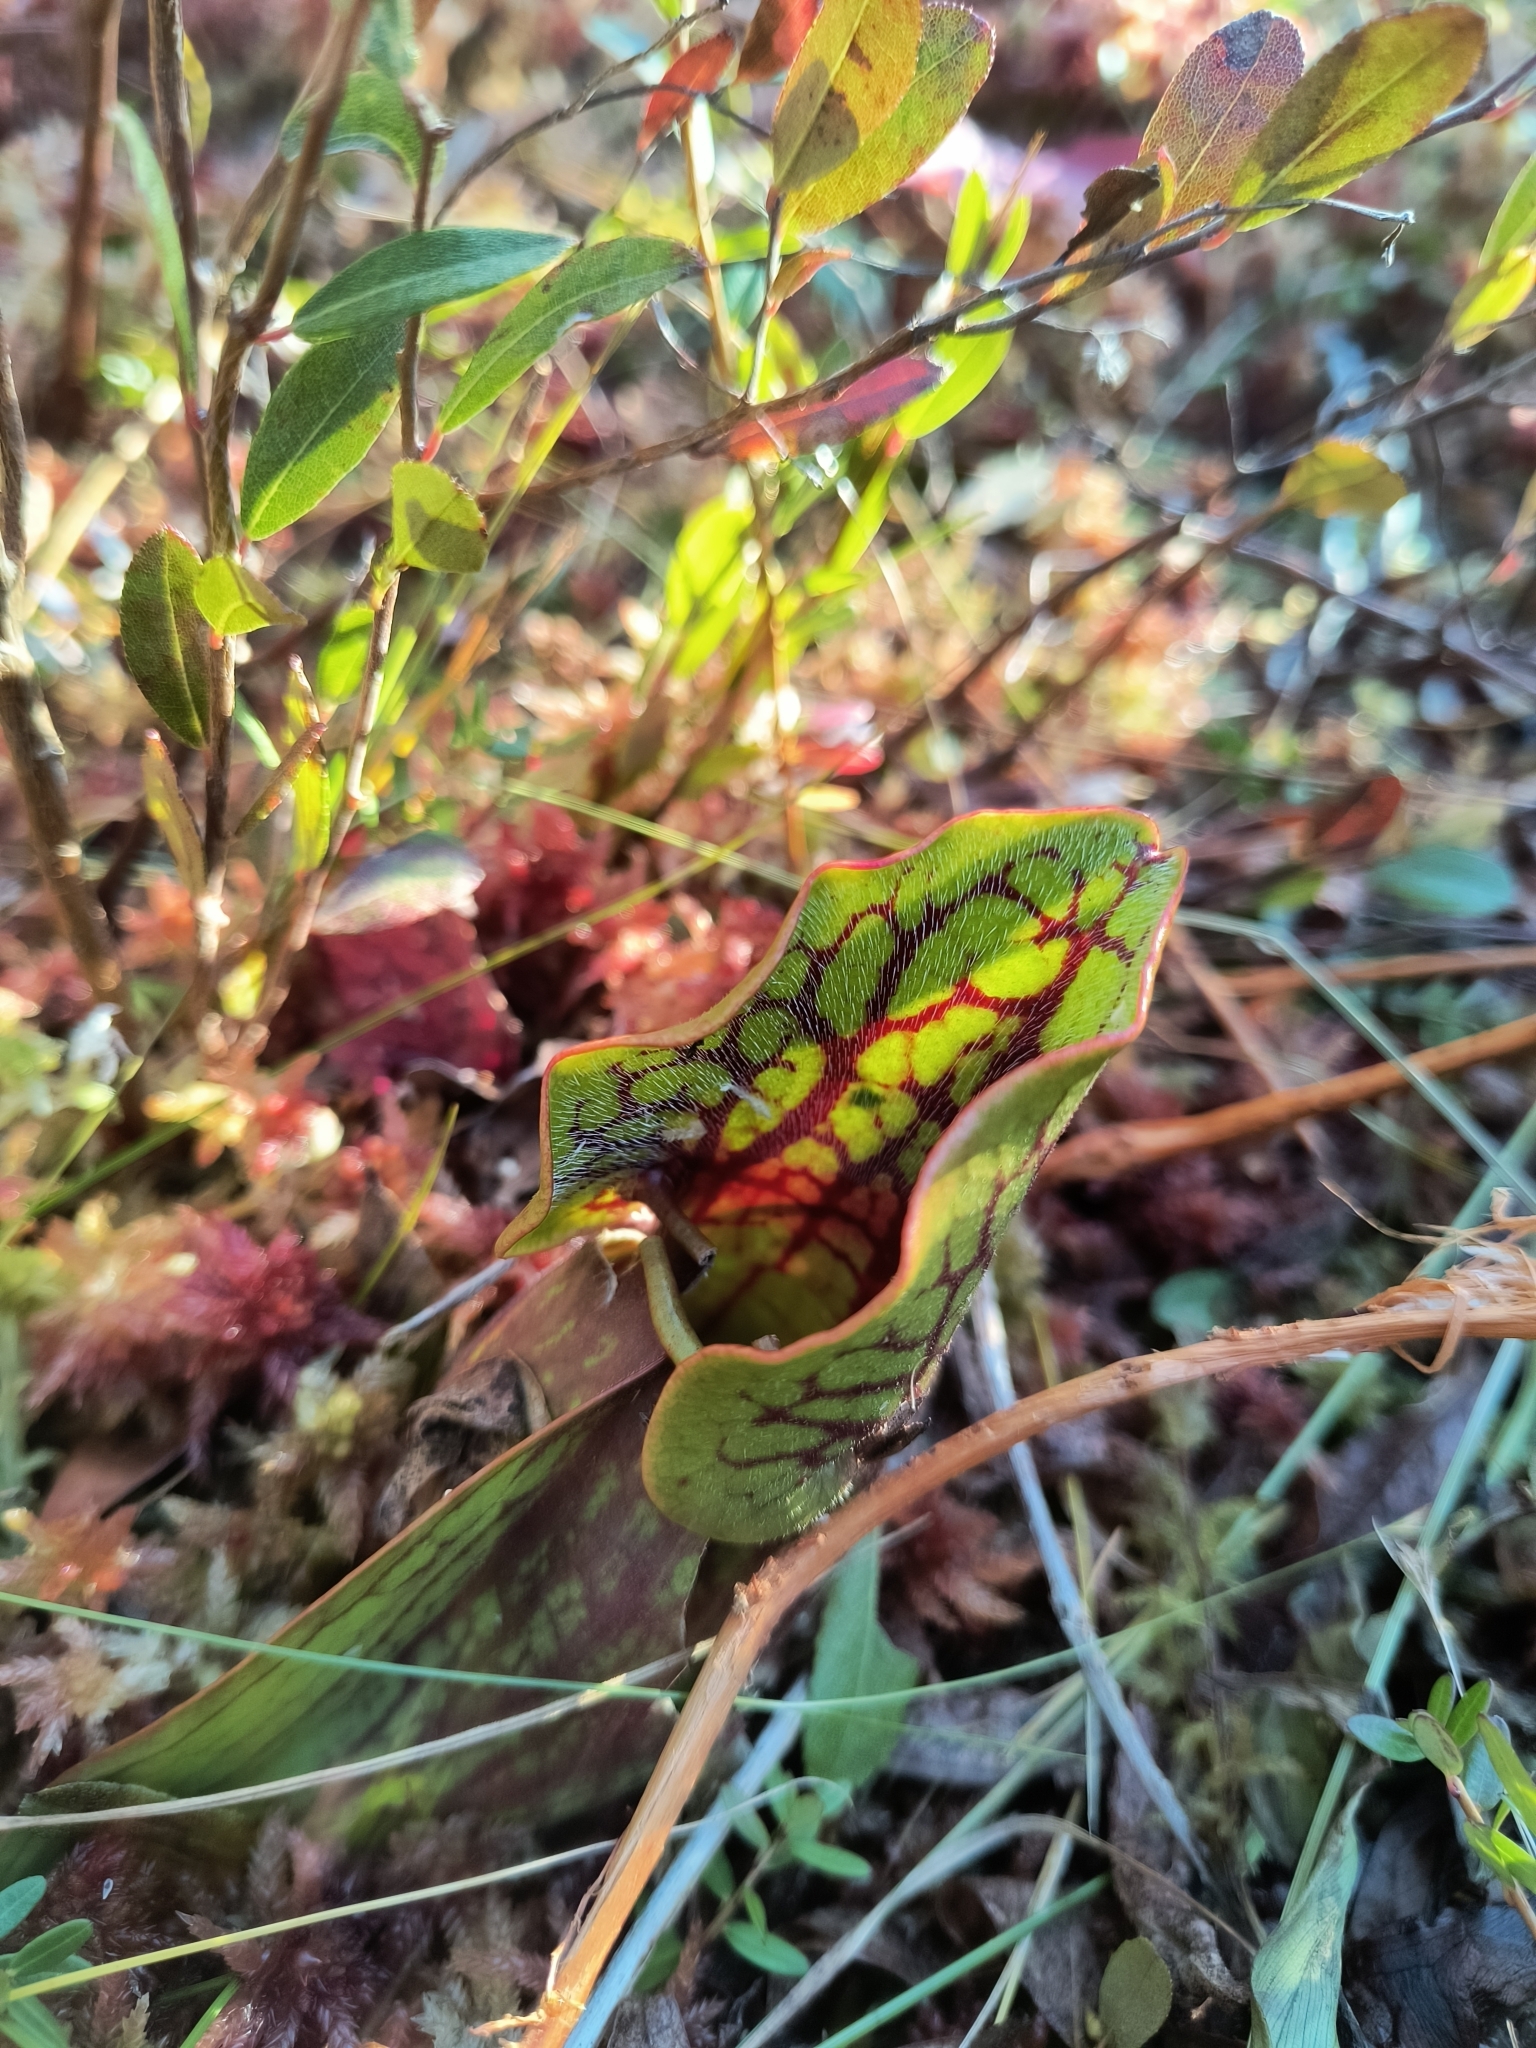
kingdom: Plantae
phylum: Tracheophyta
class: Magnoliopsida
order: Ericales
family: Sarraceniaceae
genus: Sarracenia
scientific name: Sarracenia purpurea
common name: Pitcherplant
